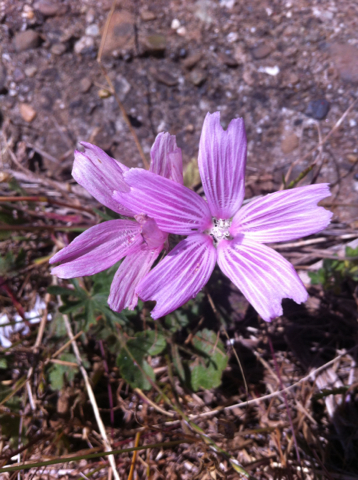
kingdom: Plantae
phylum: Tracheophyta
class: Magnoliopsida
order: Malvales
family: Malvaceae
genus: Sidalcea
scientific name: Sidalcea malviflora
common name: Greek mallow
